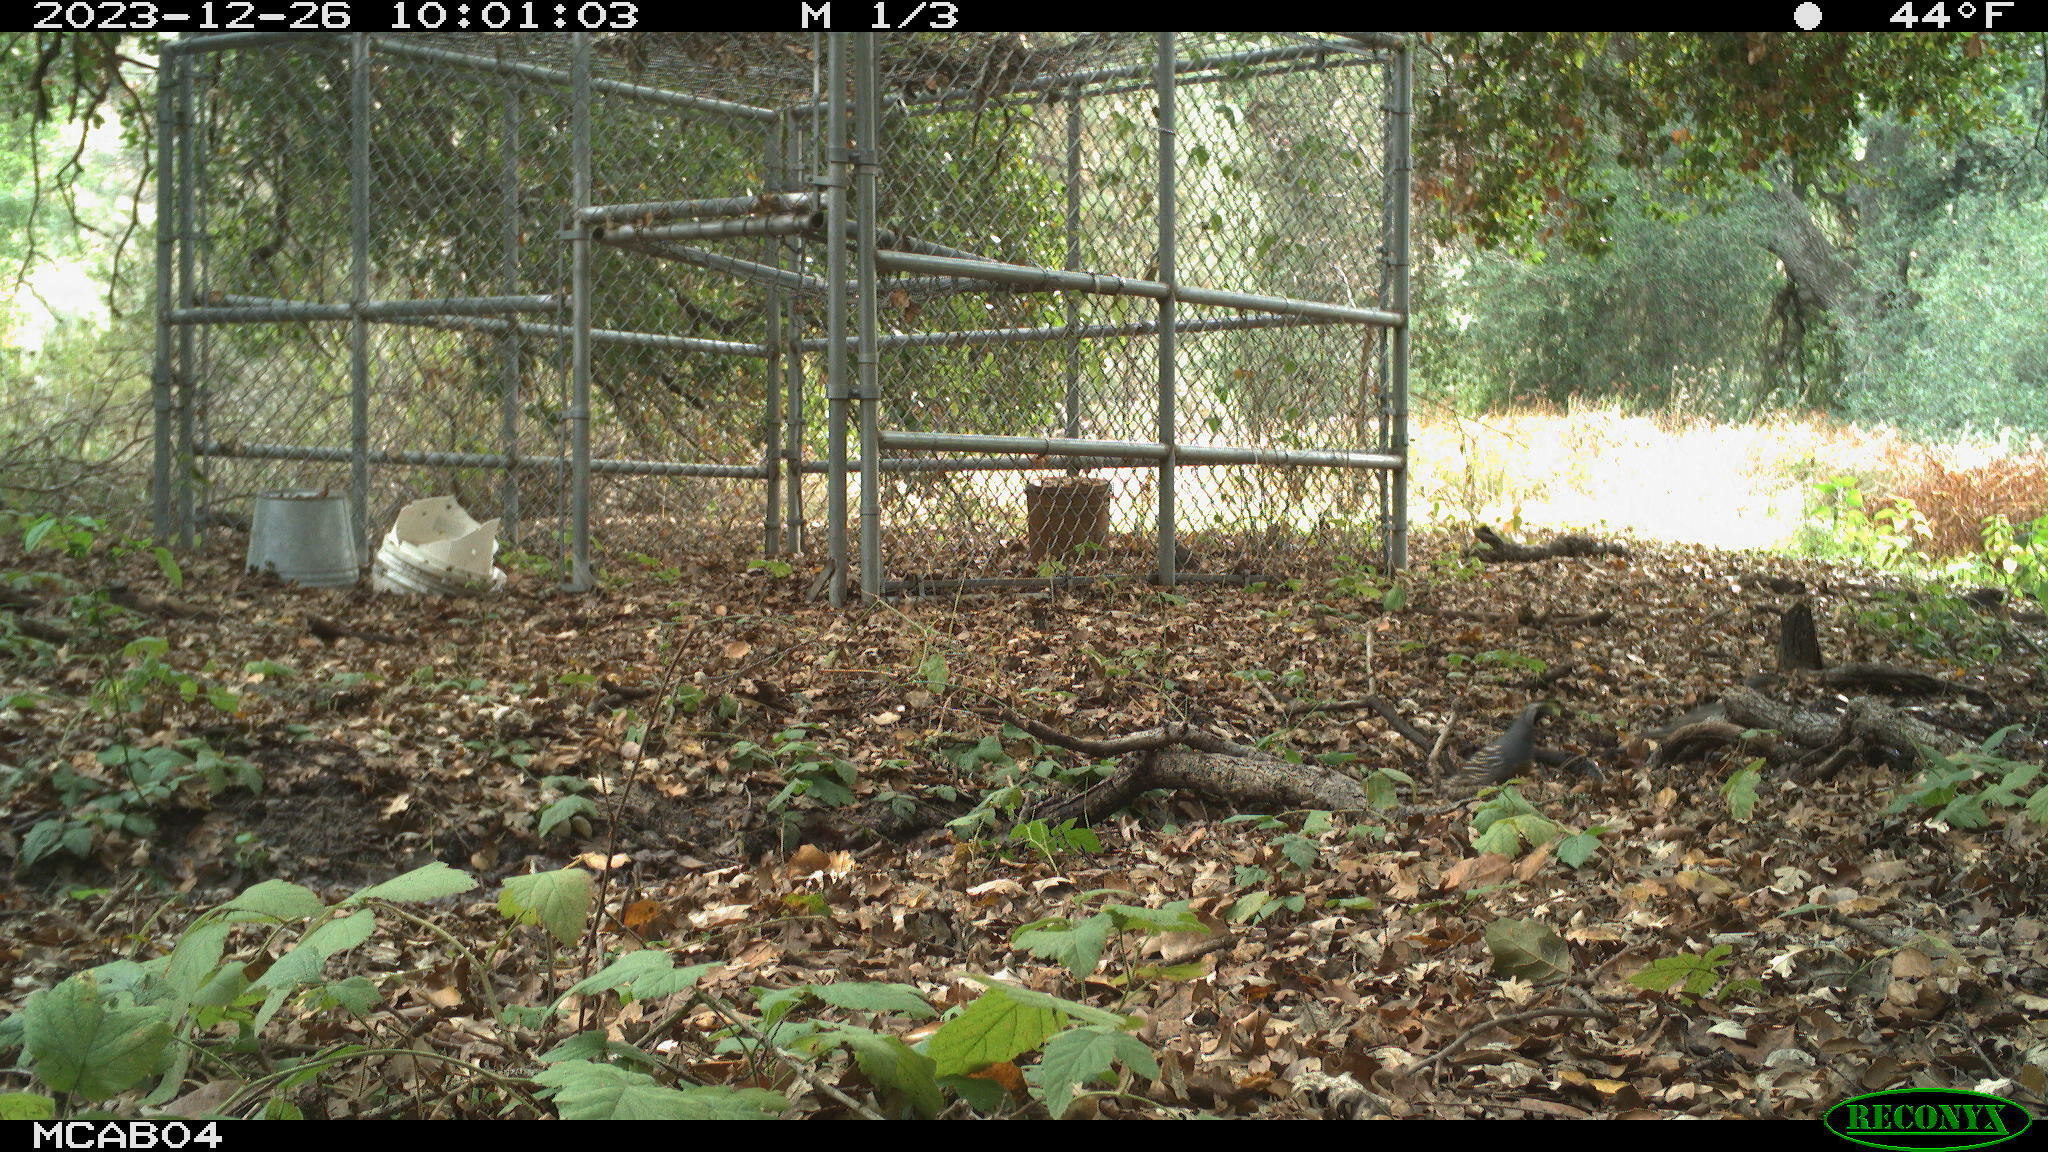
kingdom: Animalia
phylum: Chordata
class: Aves
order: Galliformes
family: Odontophoridae
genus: Callipepla
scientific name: Callipepla californica
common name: California quail
